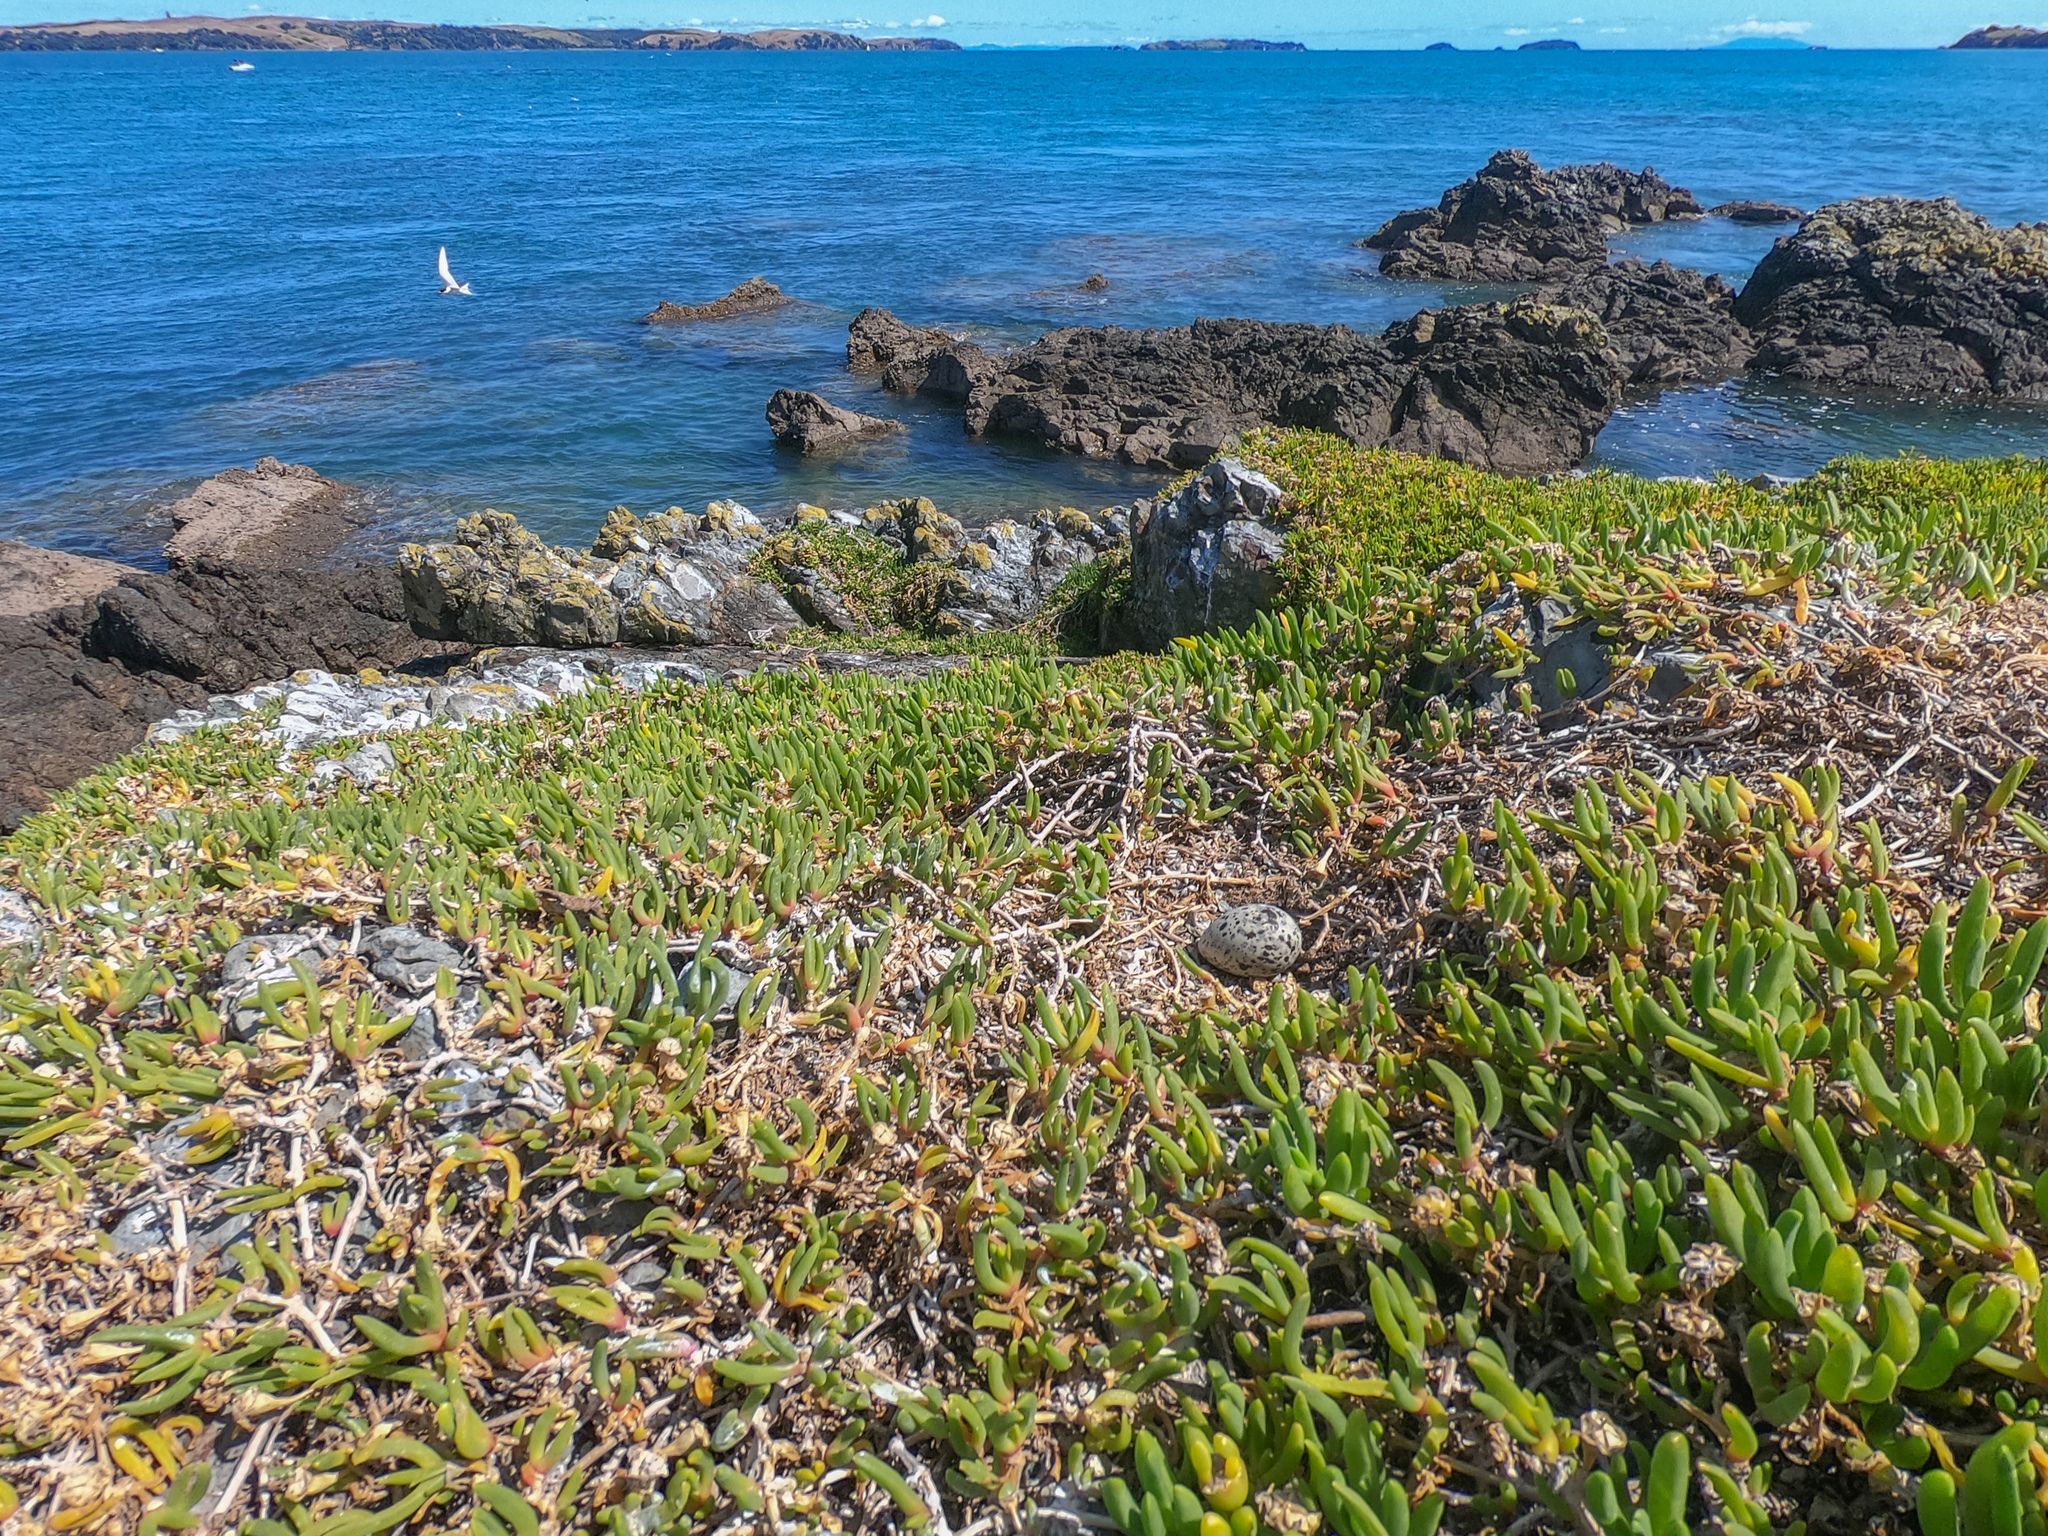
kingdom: Animalia
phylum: Chordata
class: Aves
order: Charadriiformes
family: Laridae
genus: Sterna
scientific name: Sterna striata
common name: White-fronted tern
